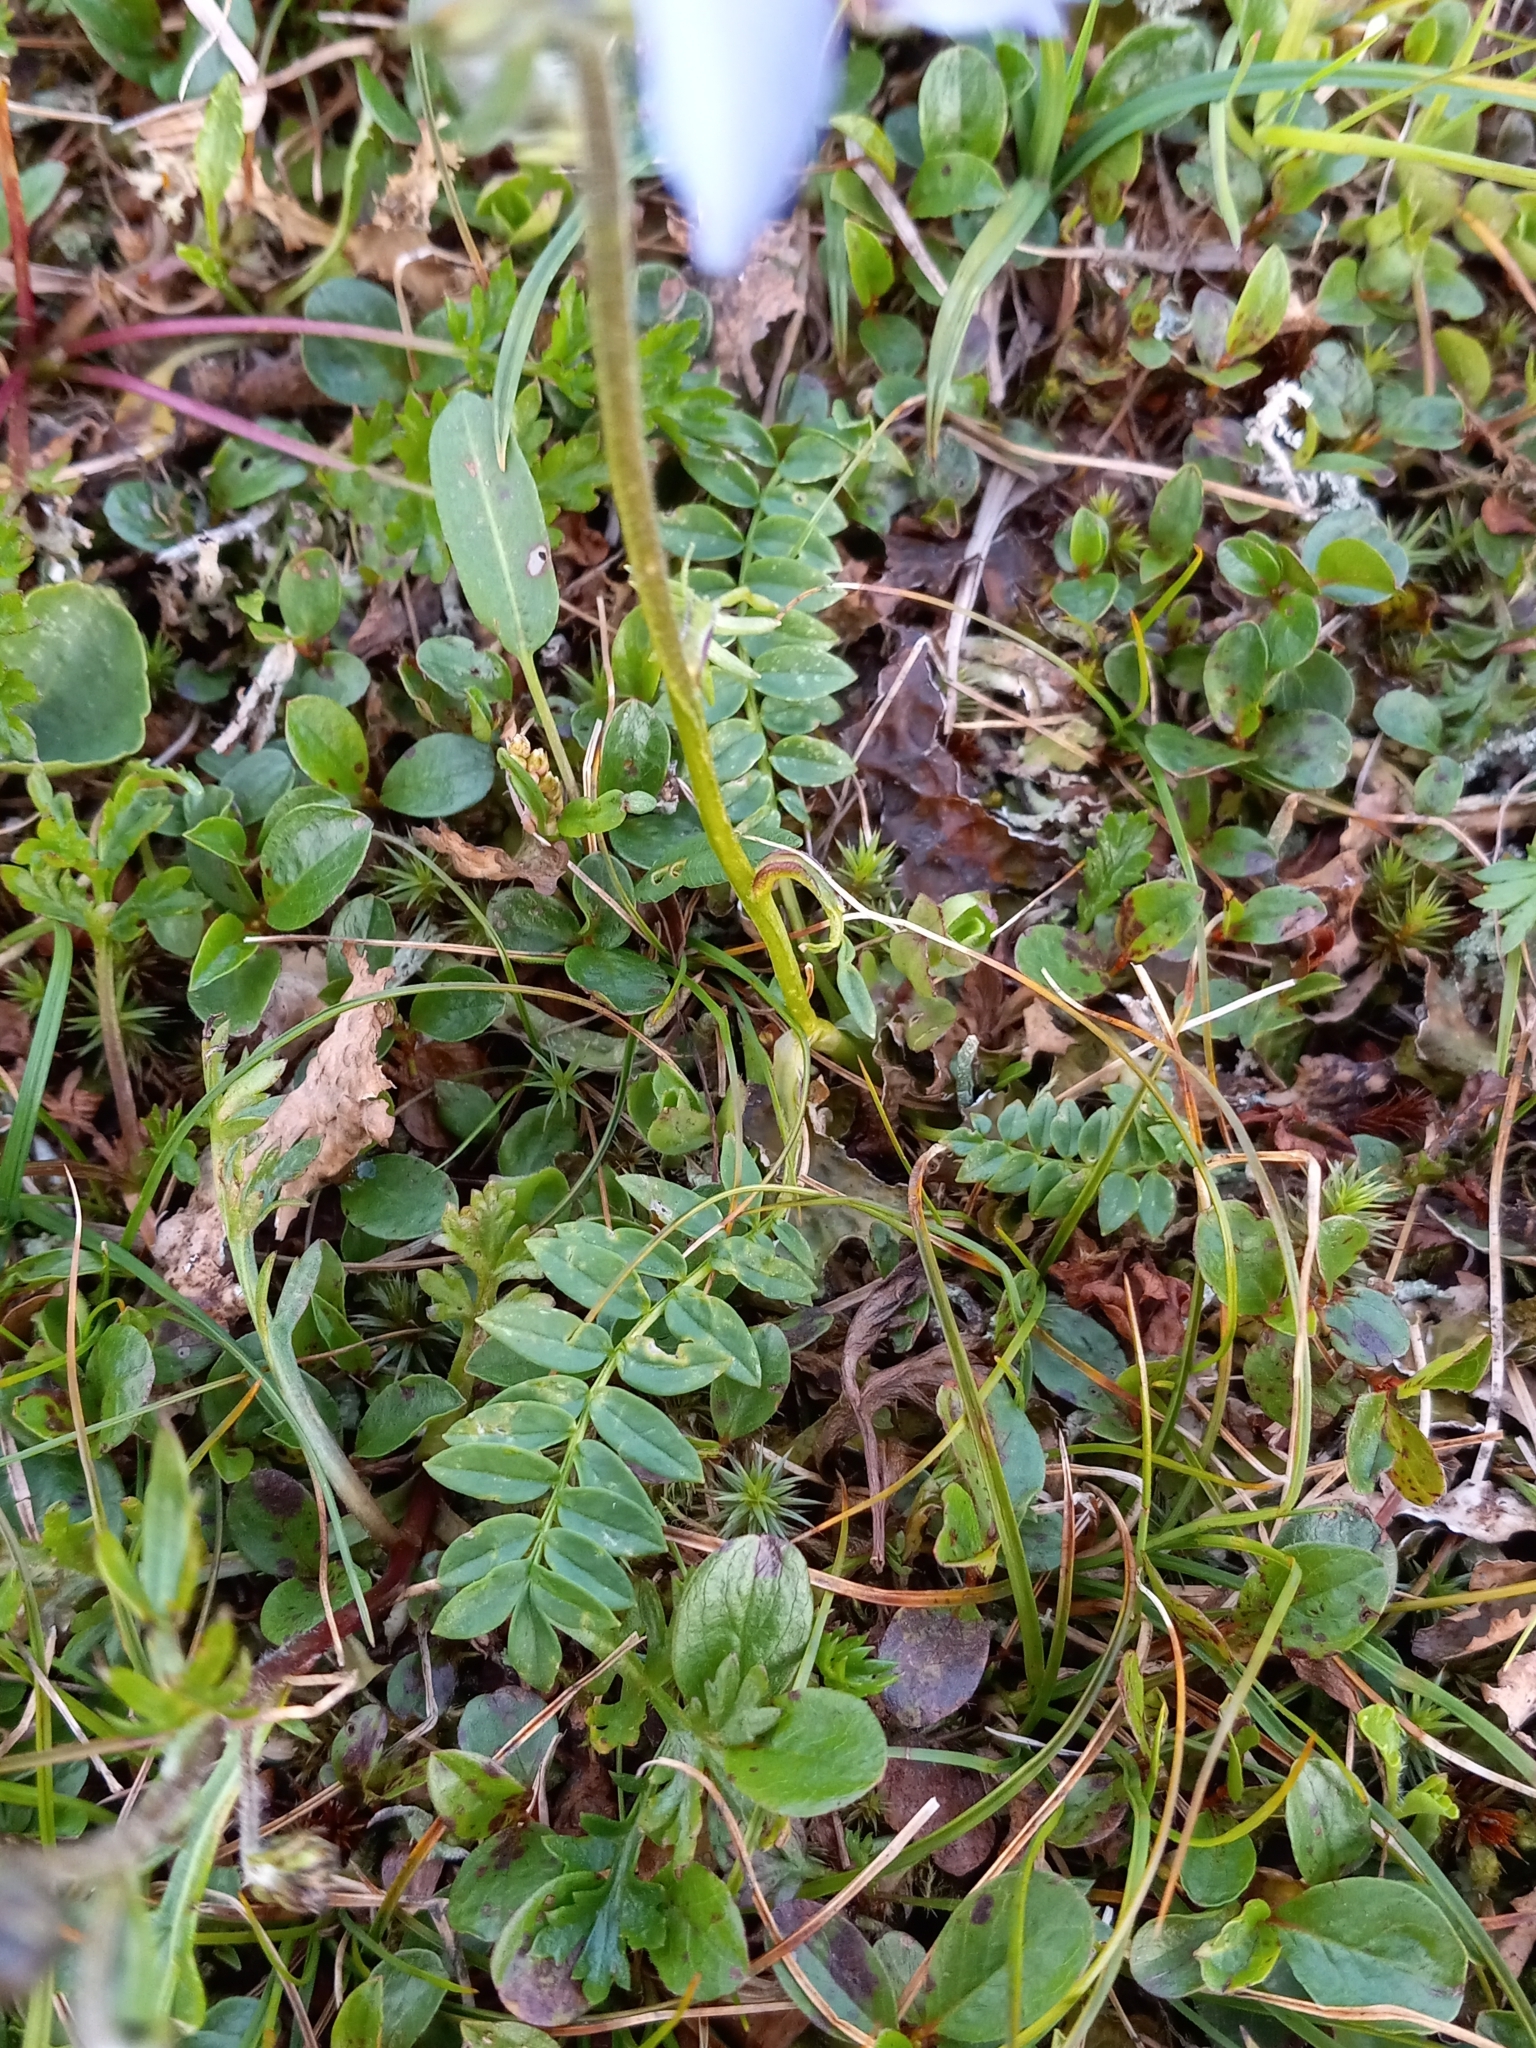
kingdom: Plantae
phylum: Tracheophyta
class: Magnoliopsida
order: Ericales
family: Polemoniaceae
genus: Polemonium
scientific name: Polemonium acutiflorum
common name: Tall jacob's-ladder
